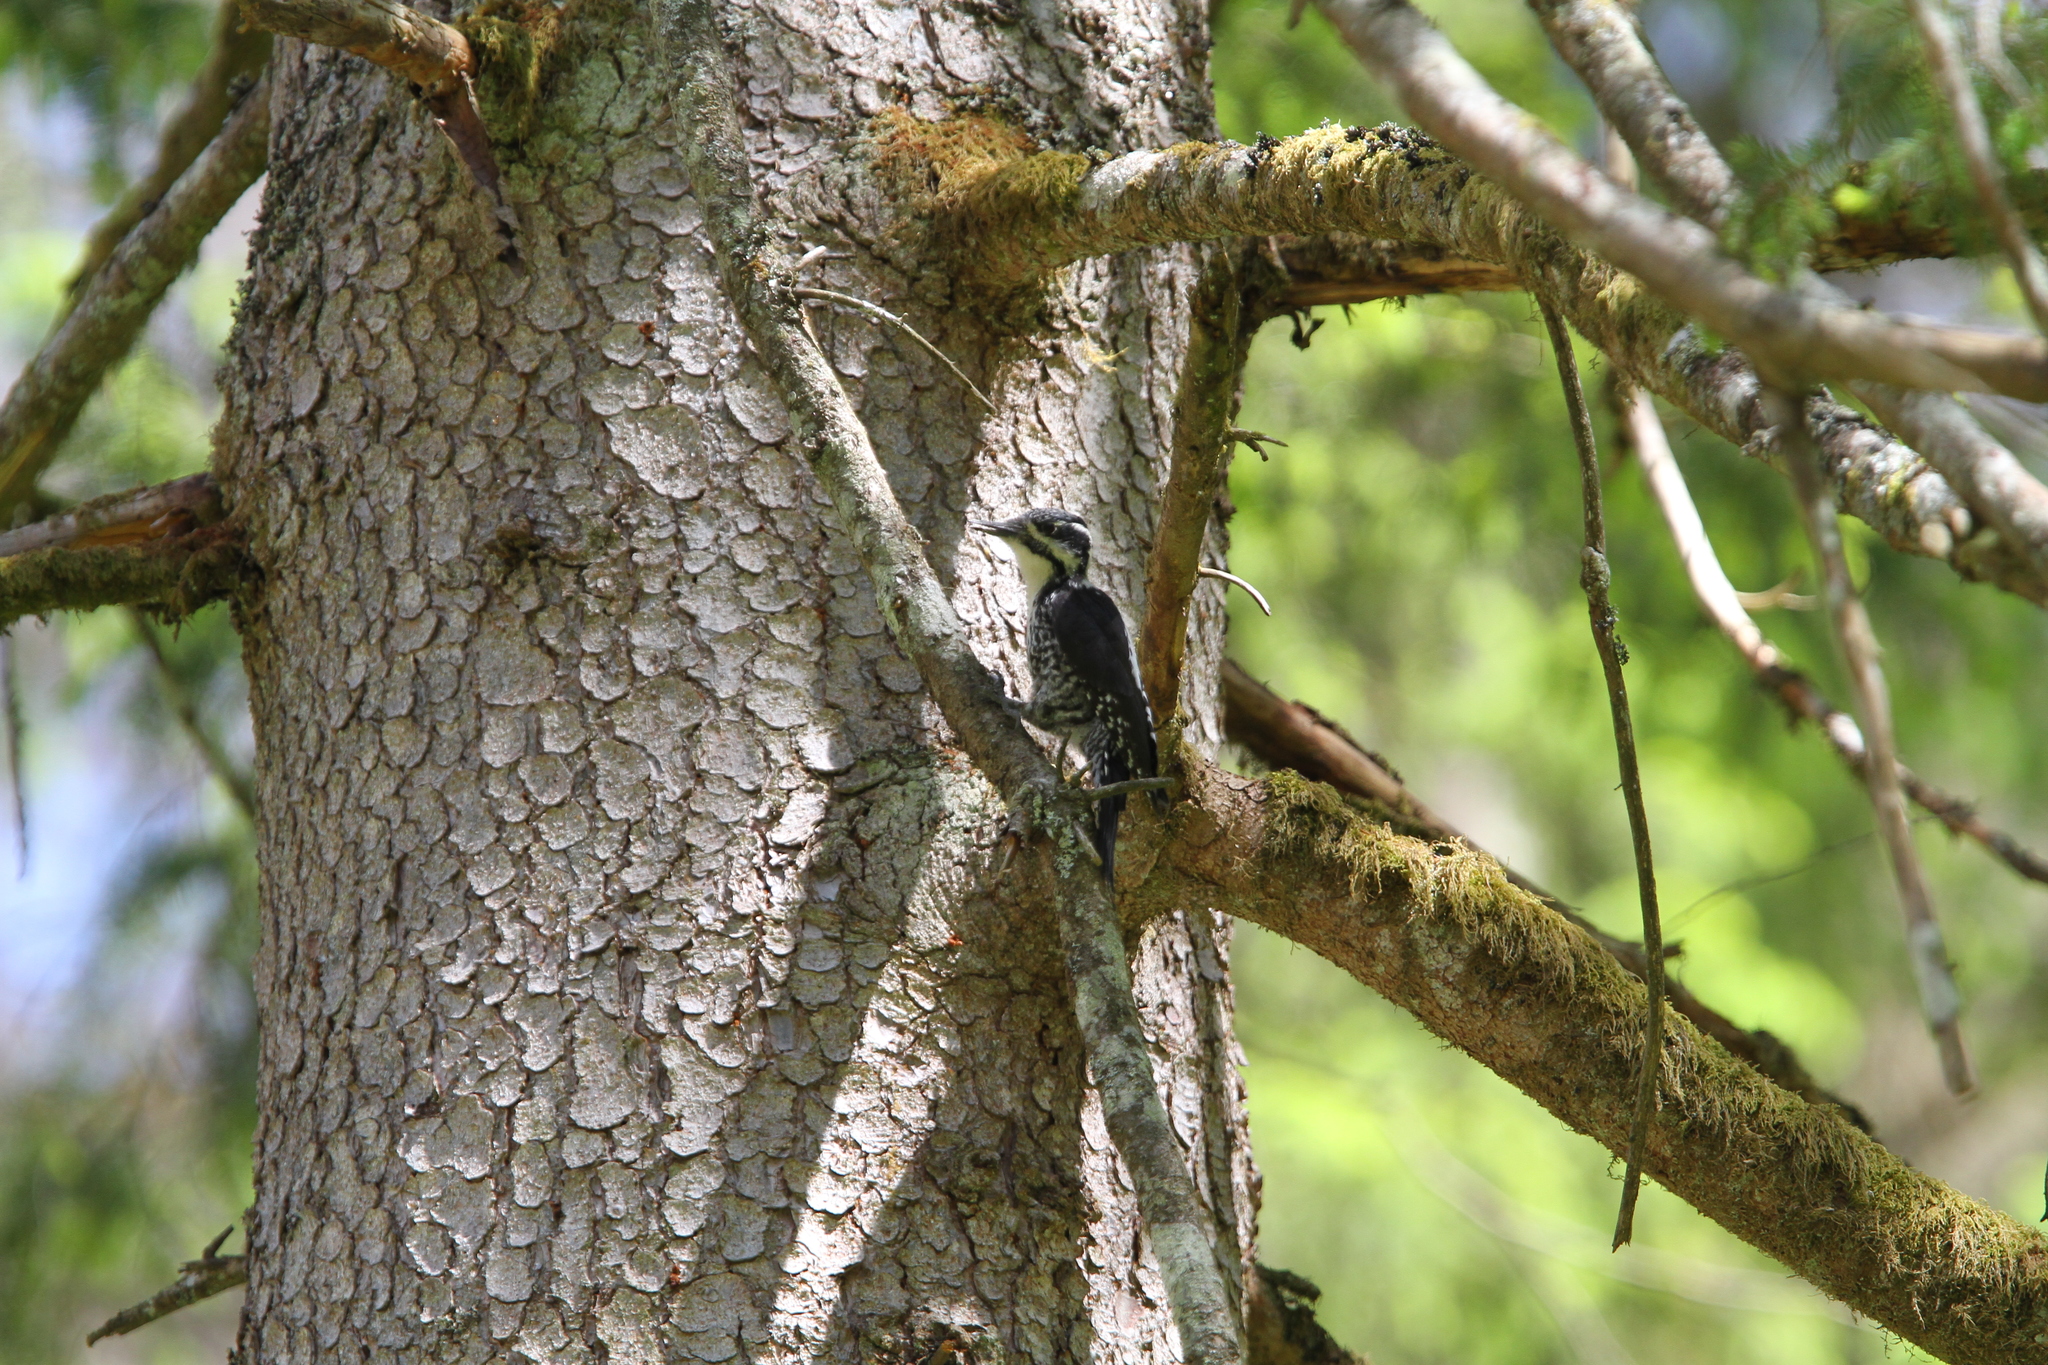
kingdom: Animalia
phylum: Chordata
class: Aves
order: Piciformes
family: Picidae
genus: Picoides
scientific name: Picoides tridactylus
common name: Eurasian three-toed woodpecker
